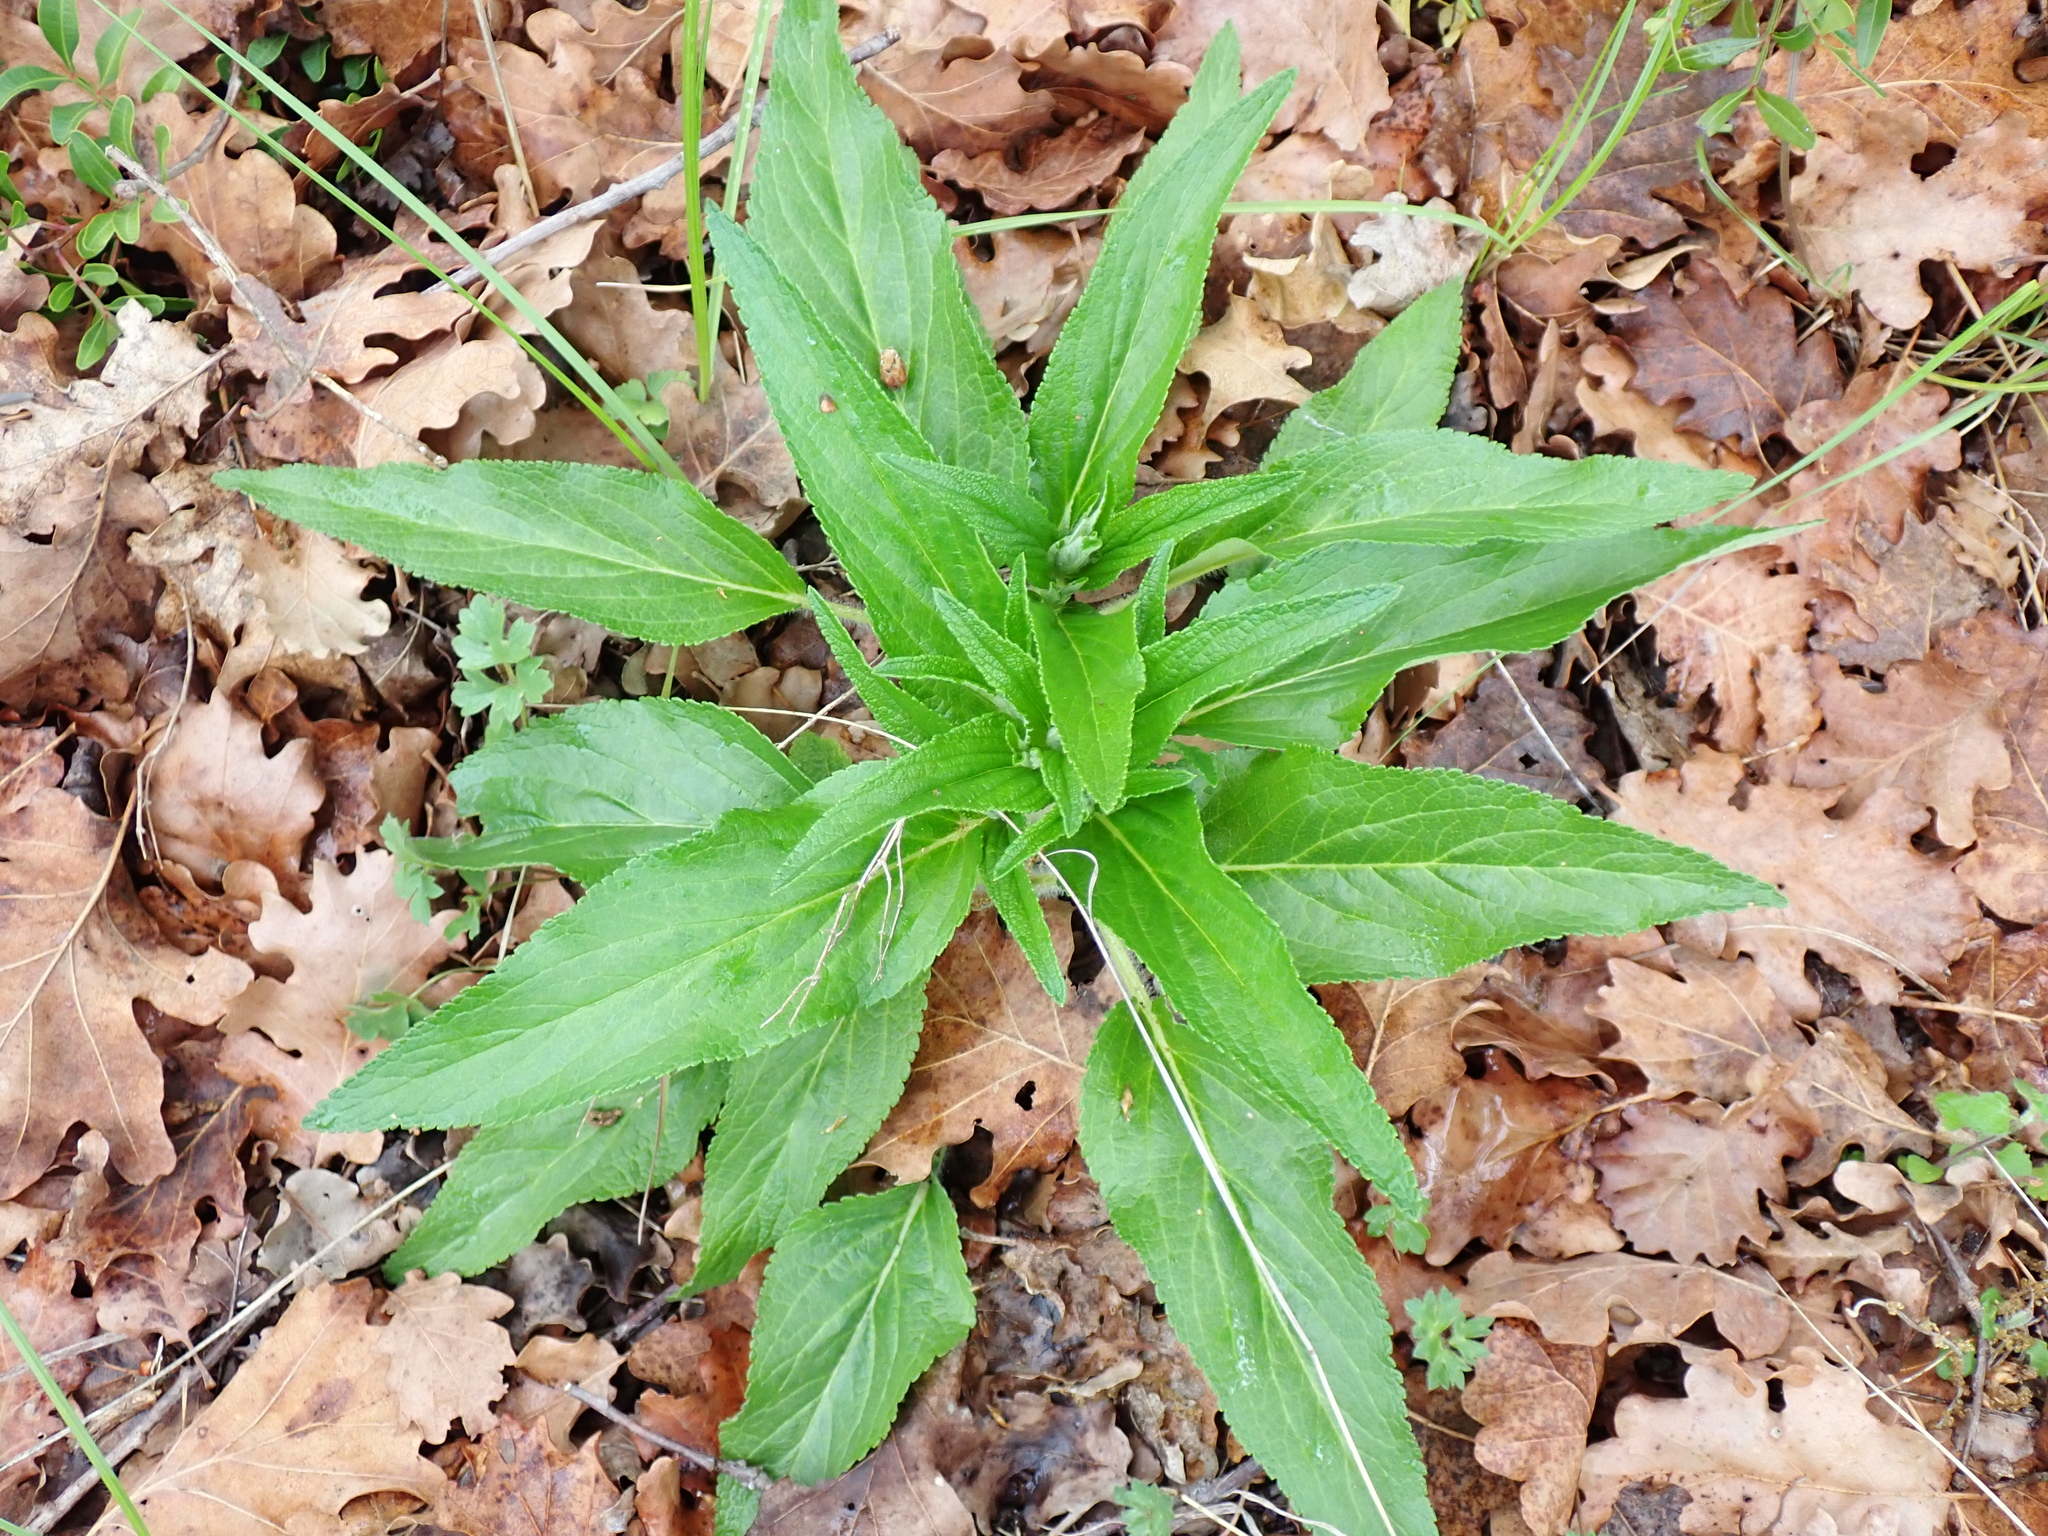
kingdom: Plantae
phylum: Tracheophyta
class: Magnoliopsida
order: Lamiales
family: Lamiaceae
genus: Phlomis
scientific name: Phlomis herba-venti
